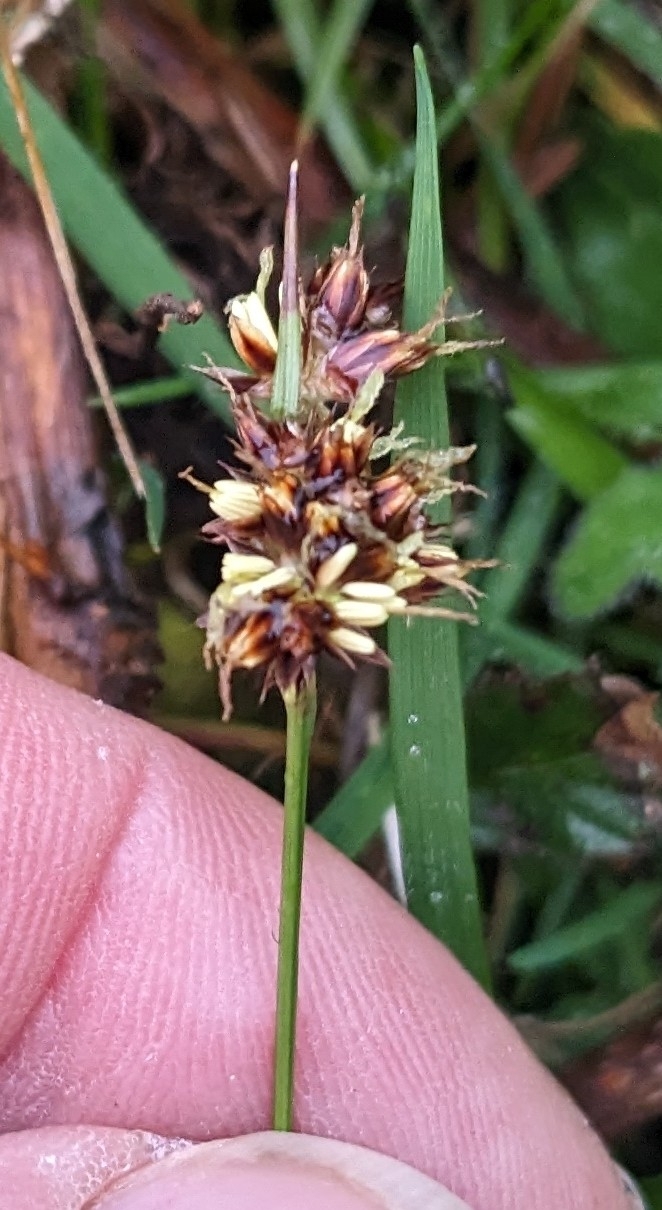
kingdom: Plantae
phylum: Tracheophyta
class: Liliopsida
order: Poales
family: Juncaceae
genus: Luzula
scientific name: Luzula campestris
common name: Field wood-rush
